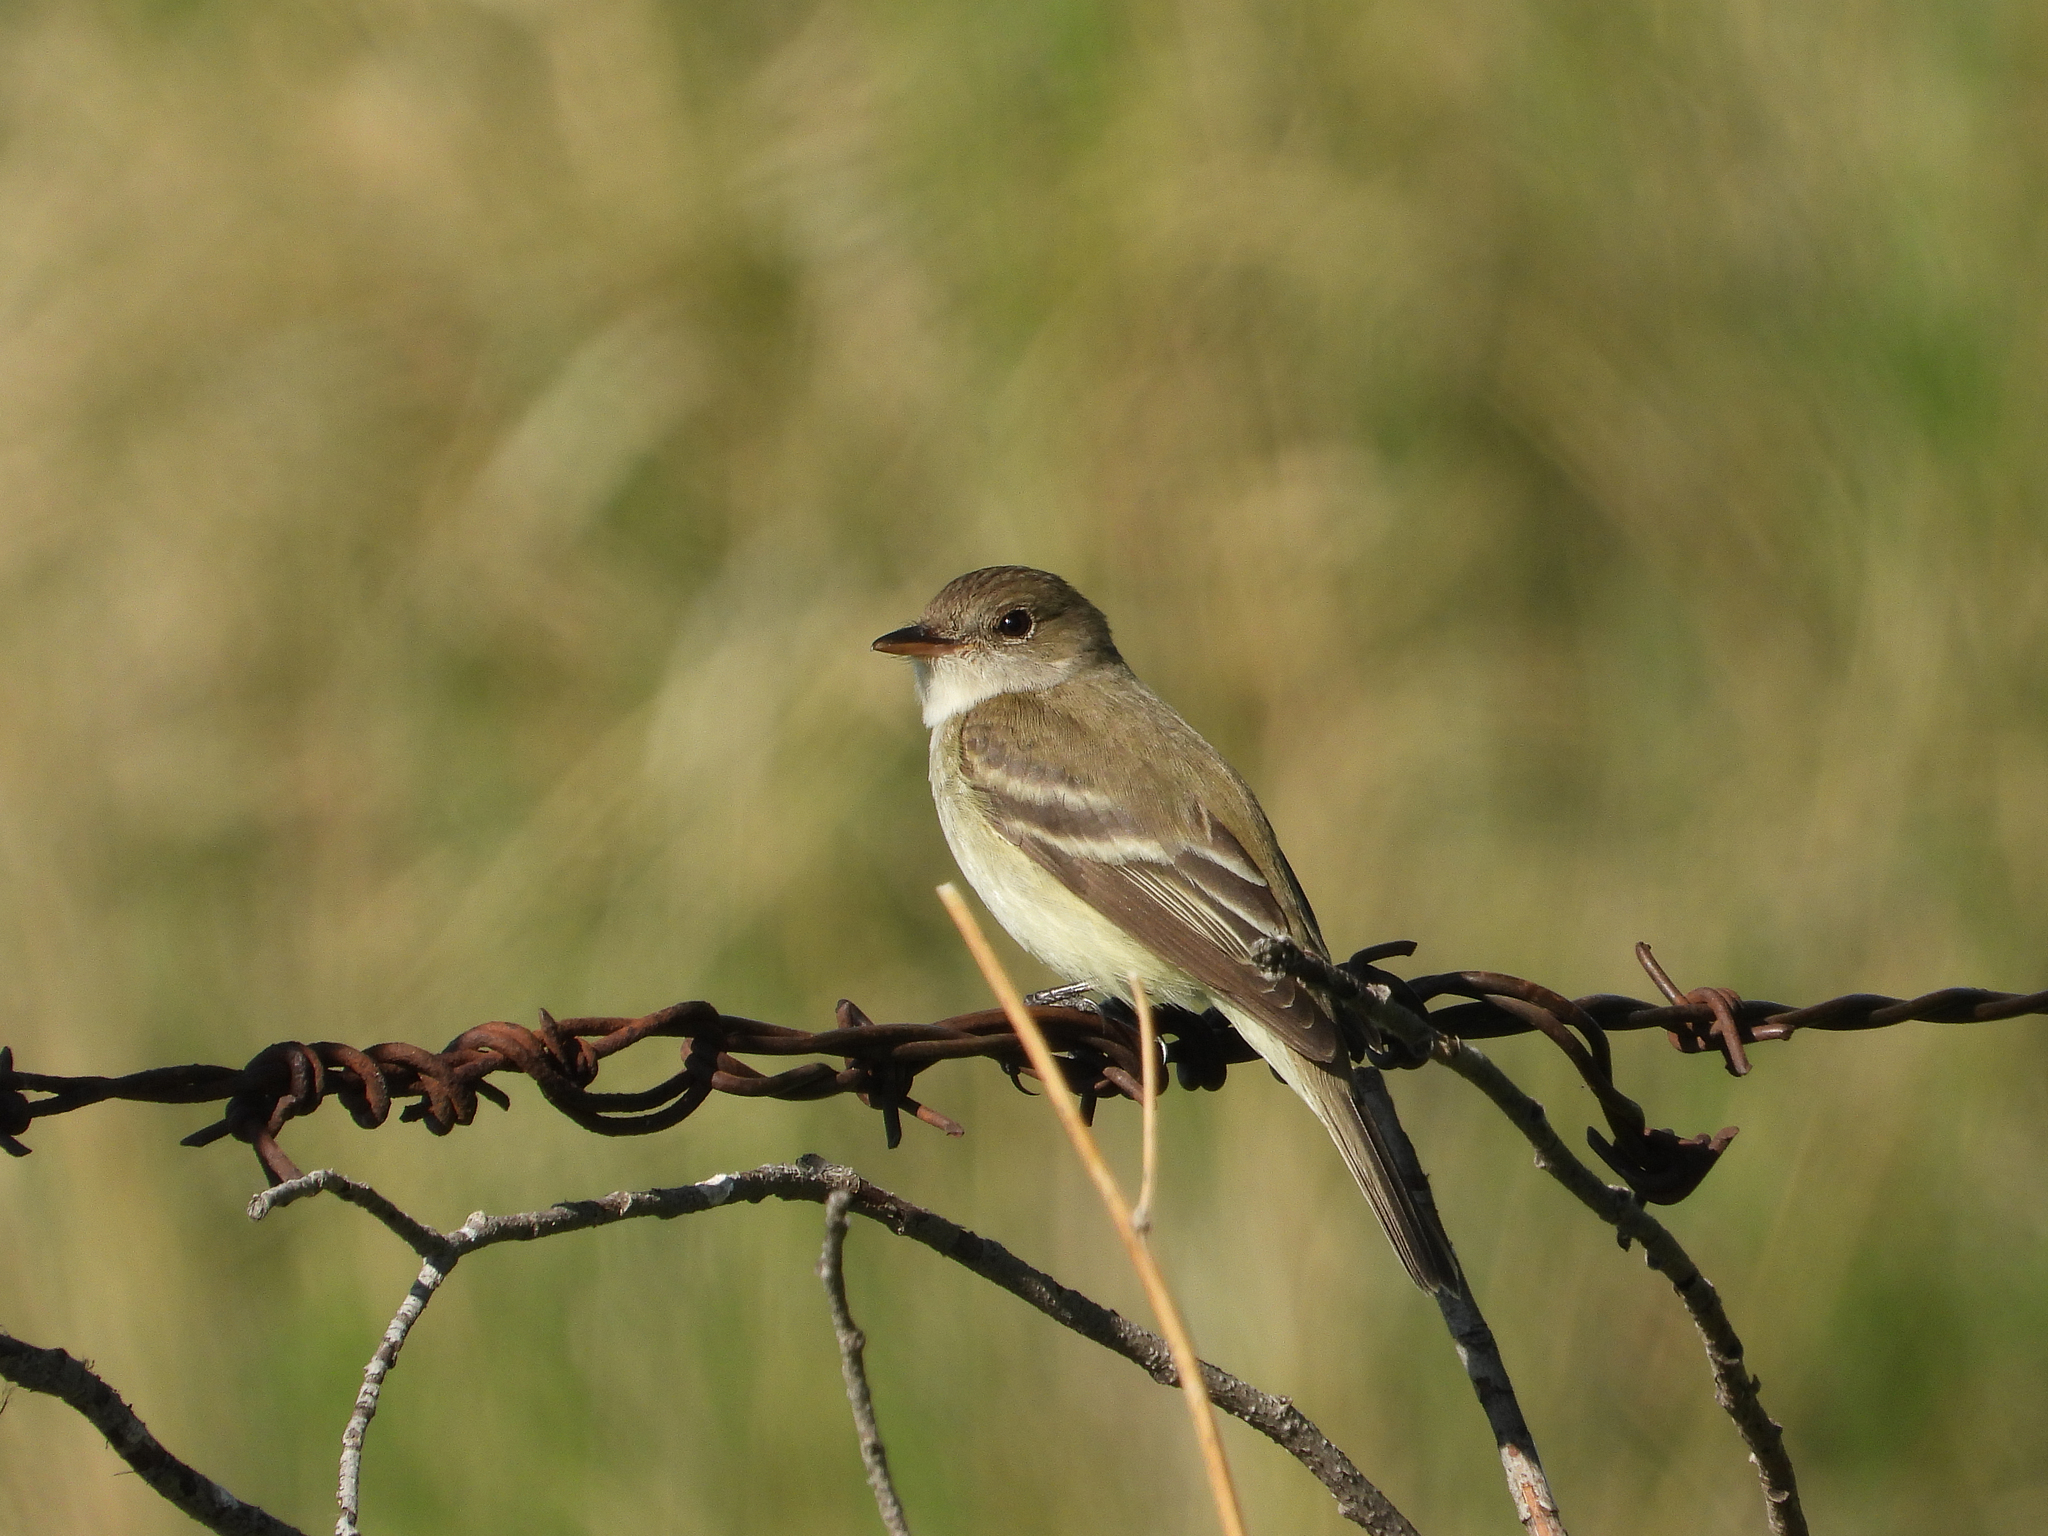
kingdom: Animalia
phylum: Chordata
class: Aves
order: Passeriformes
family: Tyrannidae
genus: Empidonax
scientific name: Empidonax traillii
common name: Willow flycatcher
